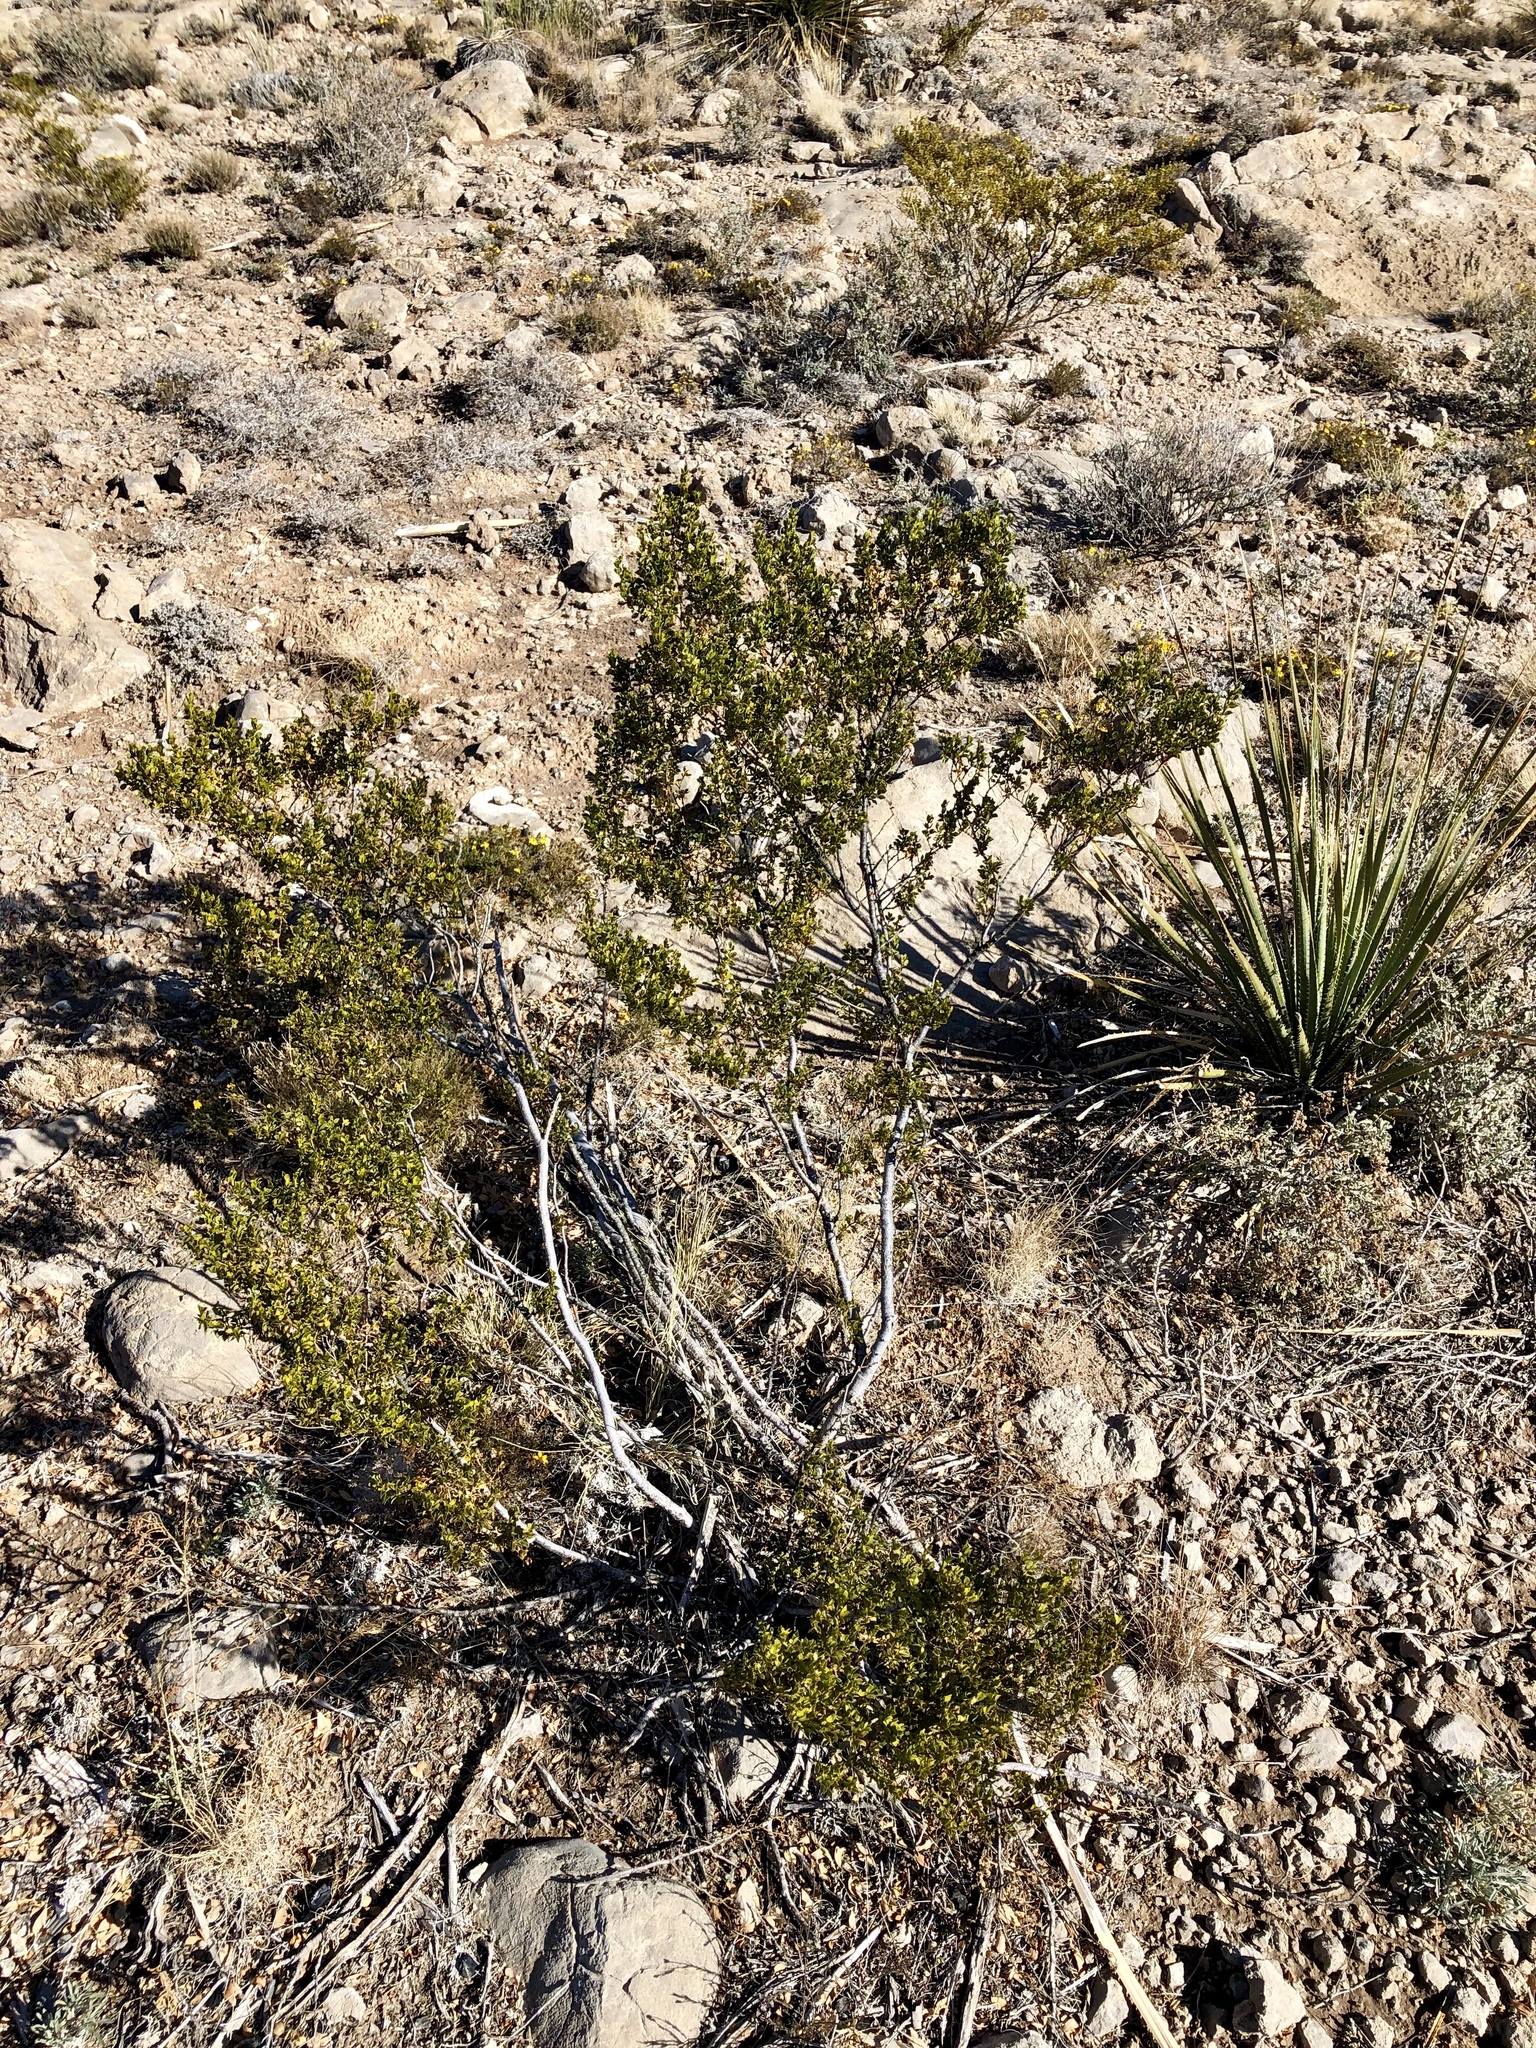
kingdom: Plantae
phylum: Tracheophyta
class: Magnoliopsida
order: Zygophyllales
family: Zygophyllaceae
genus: Larrea
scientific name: Larrea tridentata
